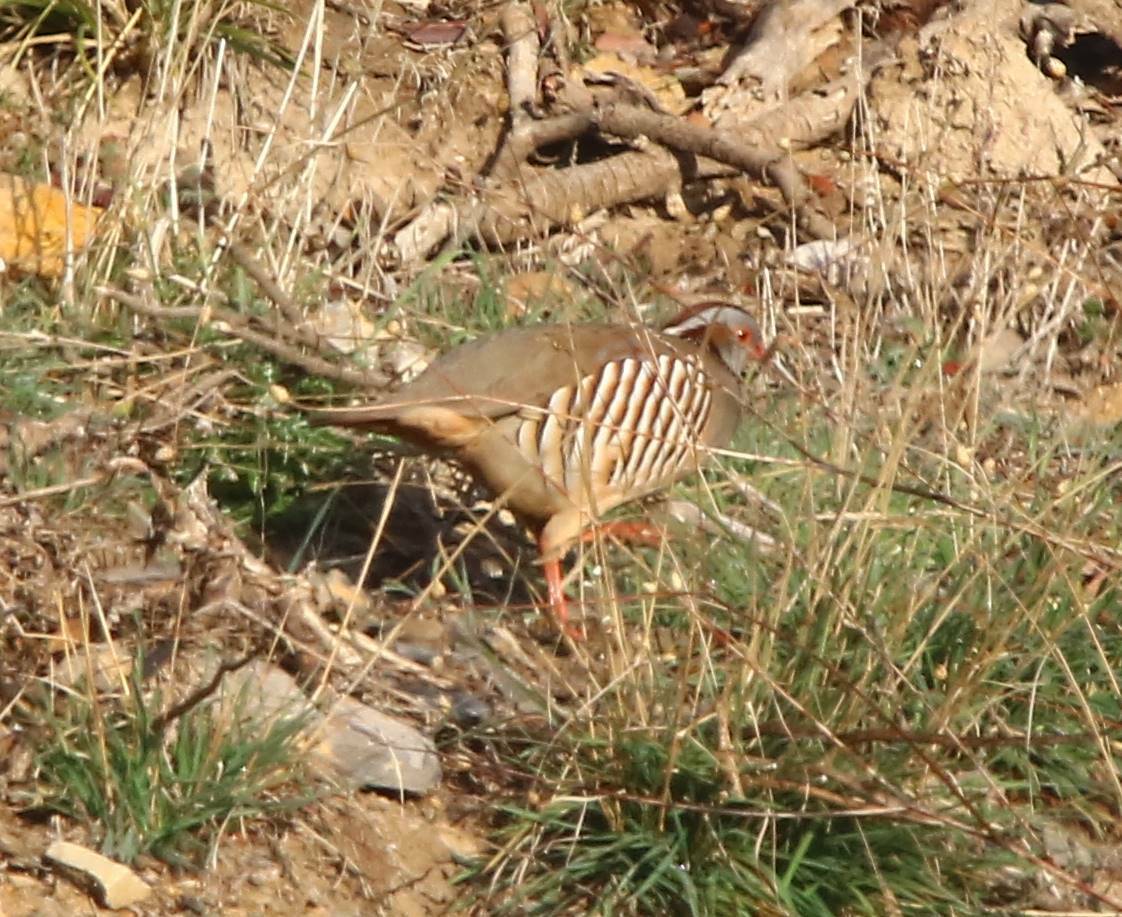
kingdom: Animalia
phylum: Chordata
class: Aves
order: Galliformes
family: Phasianidae
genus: Alectoris
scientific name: Alectoris barbara
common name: Barbary partridge
